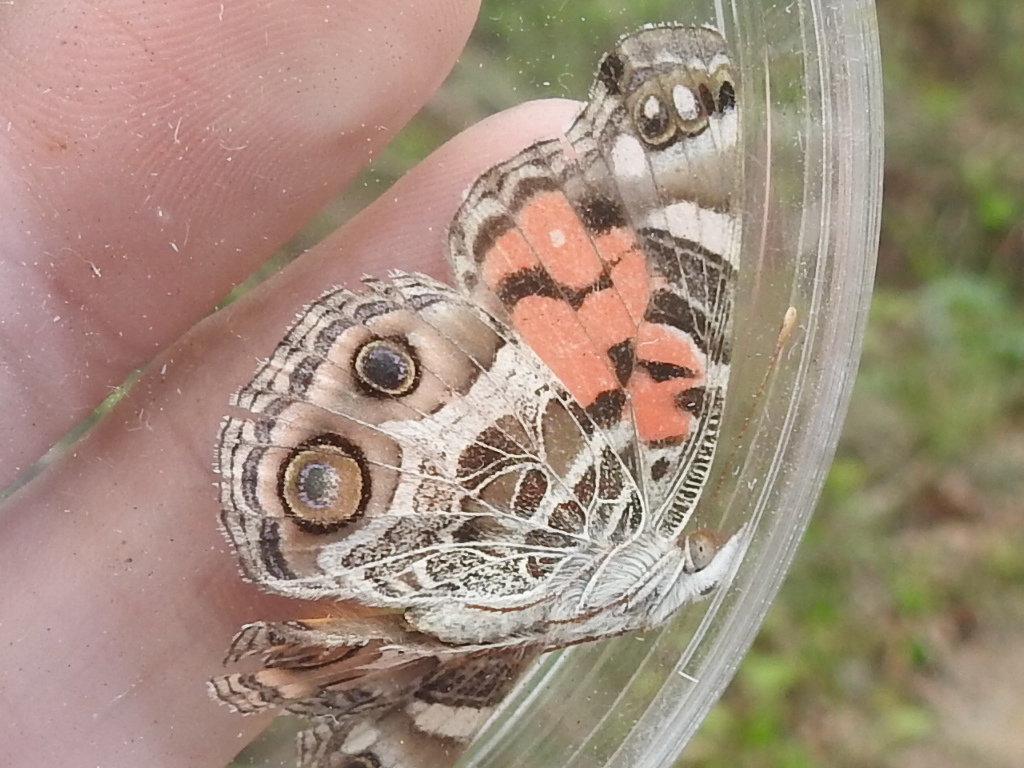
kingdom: Animalia
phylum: Arthropoda
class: Insecta
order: Lepidoptera
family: Nymphalidae
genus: Vanessa
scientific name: Vanessa virginiensis
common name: American lady
